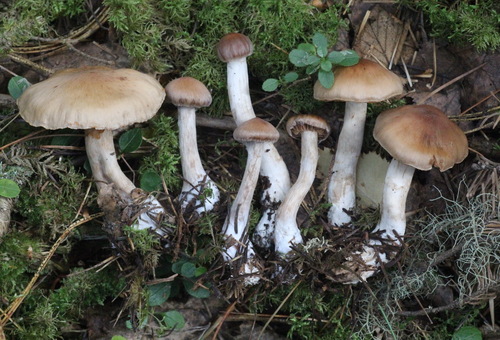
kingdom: Fungi
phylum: Basidiomycota
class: Agaricomycetes
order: Agaricales
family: Cortinariaceae
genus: Cortinarius
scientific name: Cortinarius biformis
